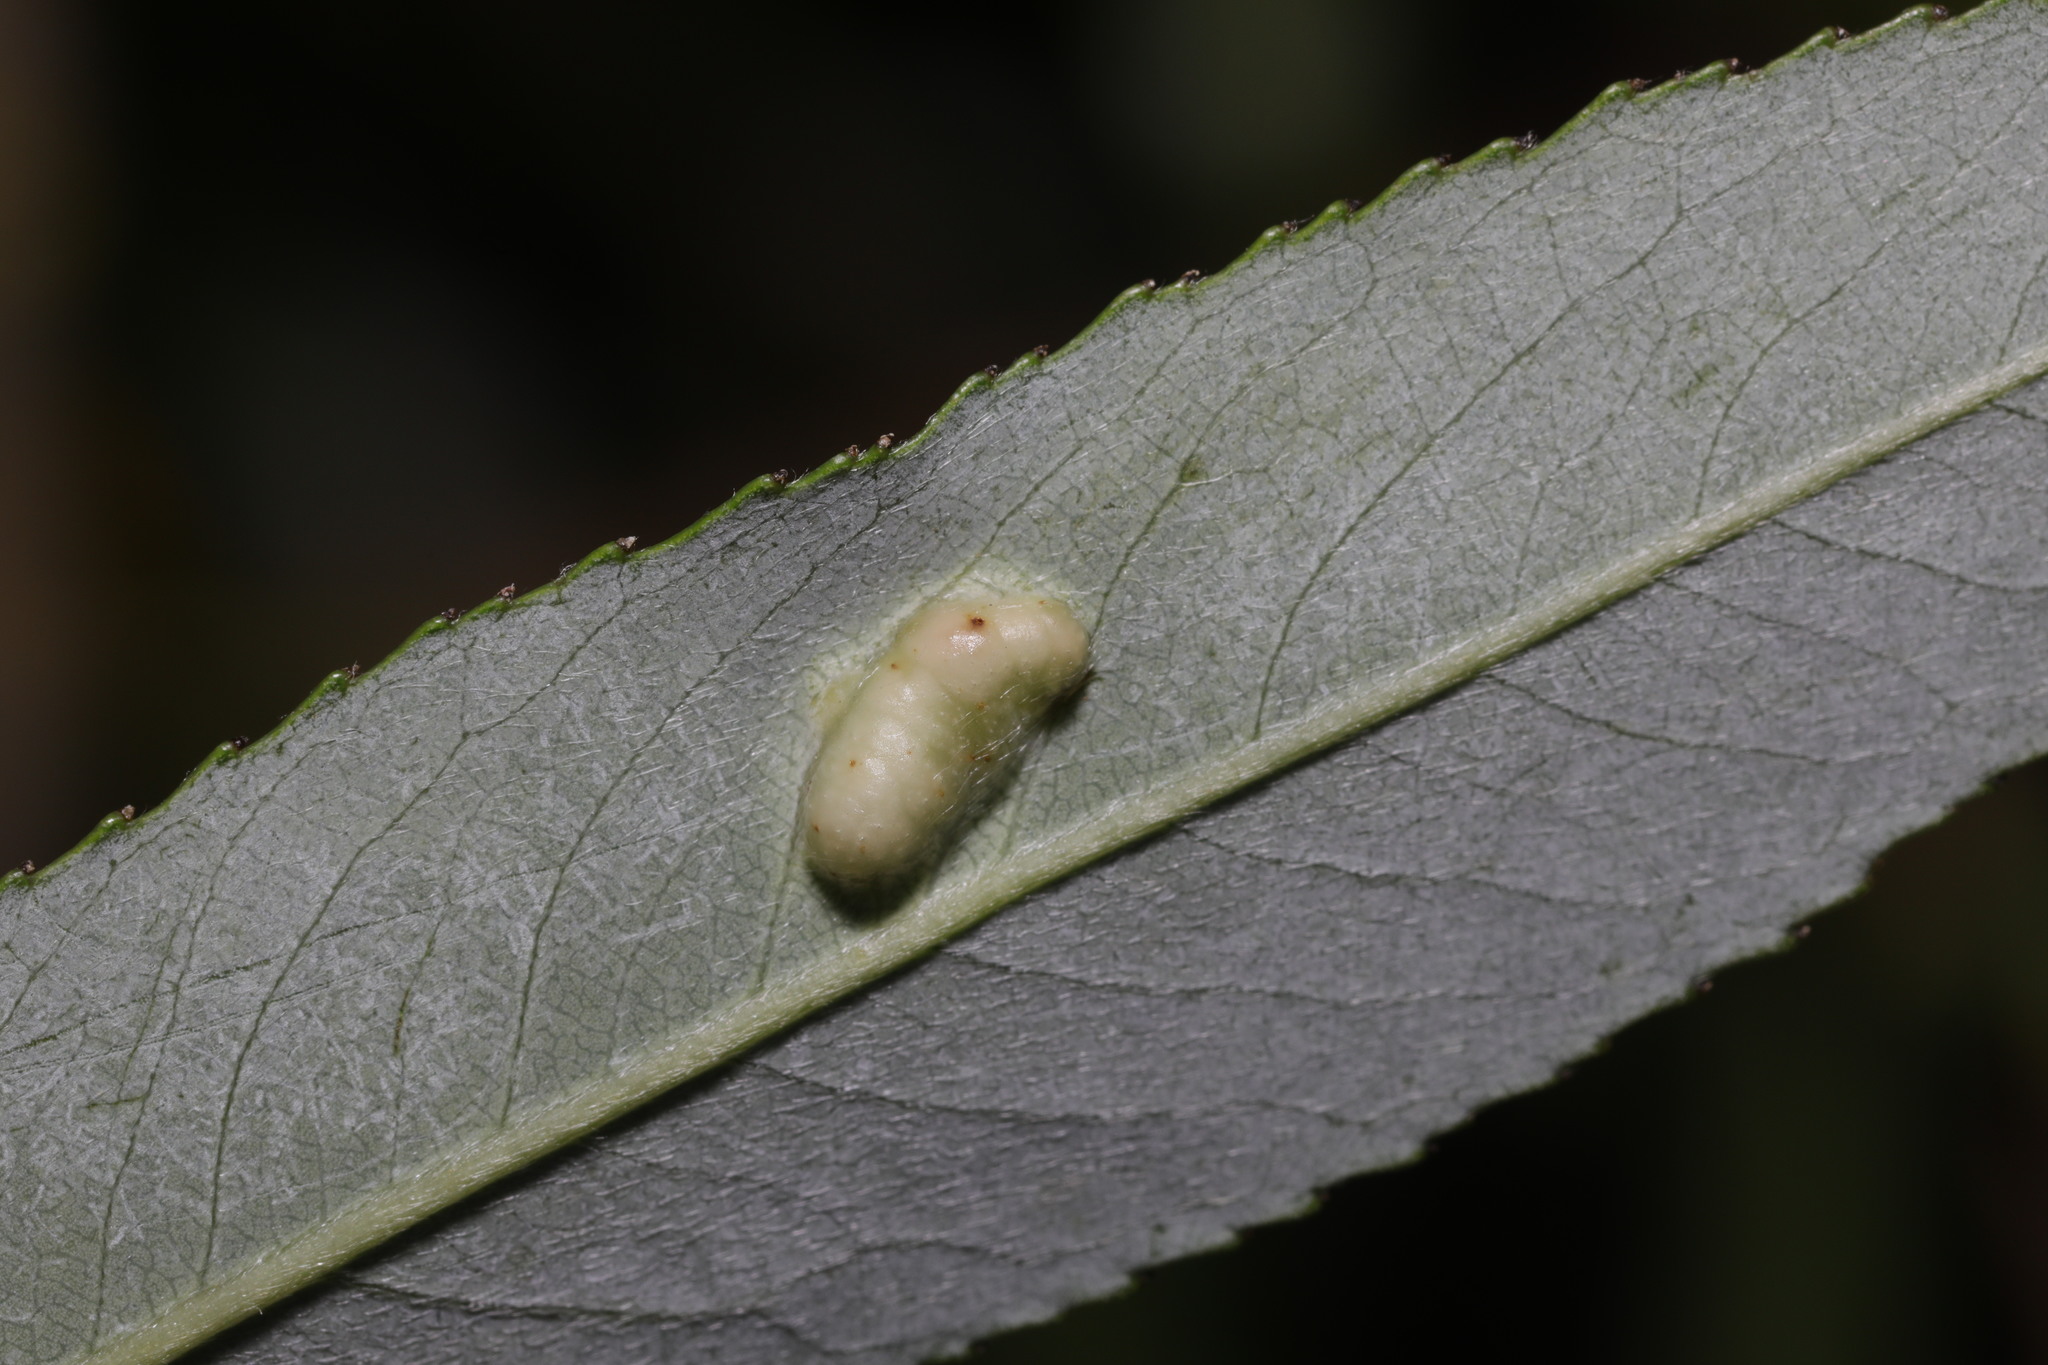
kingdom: Animalia
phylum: Arthropoda
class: Insecta
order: Hymenoptera
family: Tenthredinidae
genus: Pontania
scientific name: Pontania proxima
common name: Common sawfly
